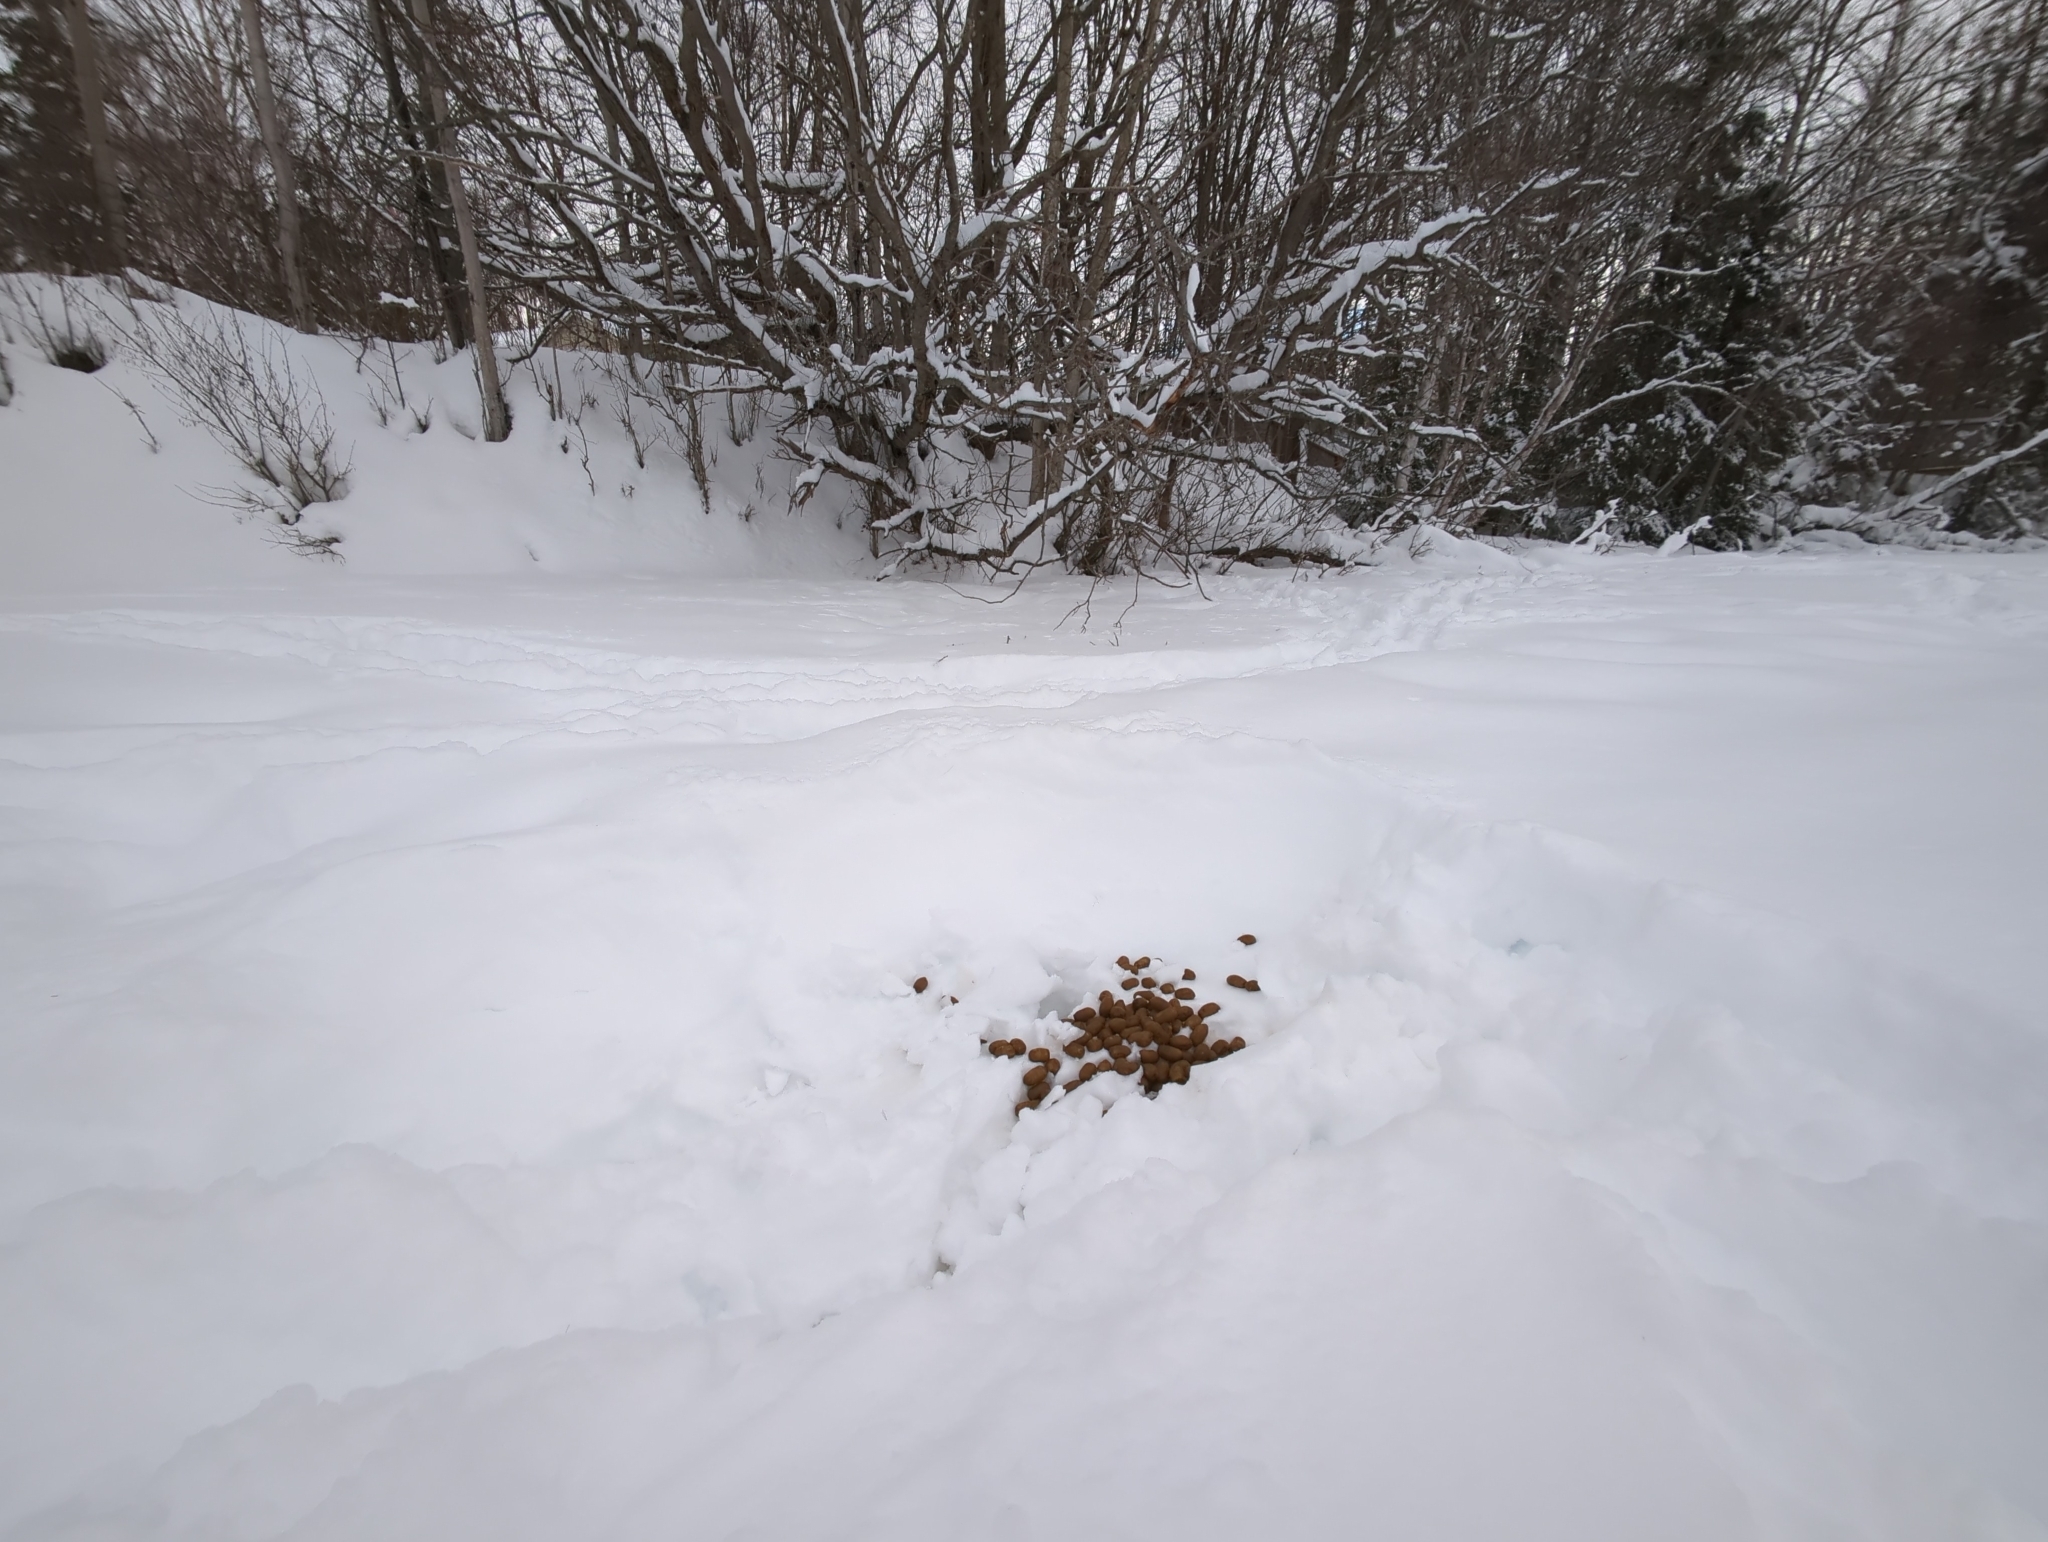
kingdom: Animalia
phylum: Chordata
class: Mammalia
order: Artiodactyla
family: Cervidae
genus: Alces
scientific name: Alces alces
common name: Moose
